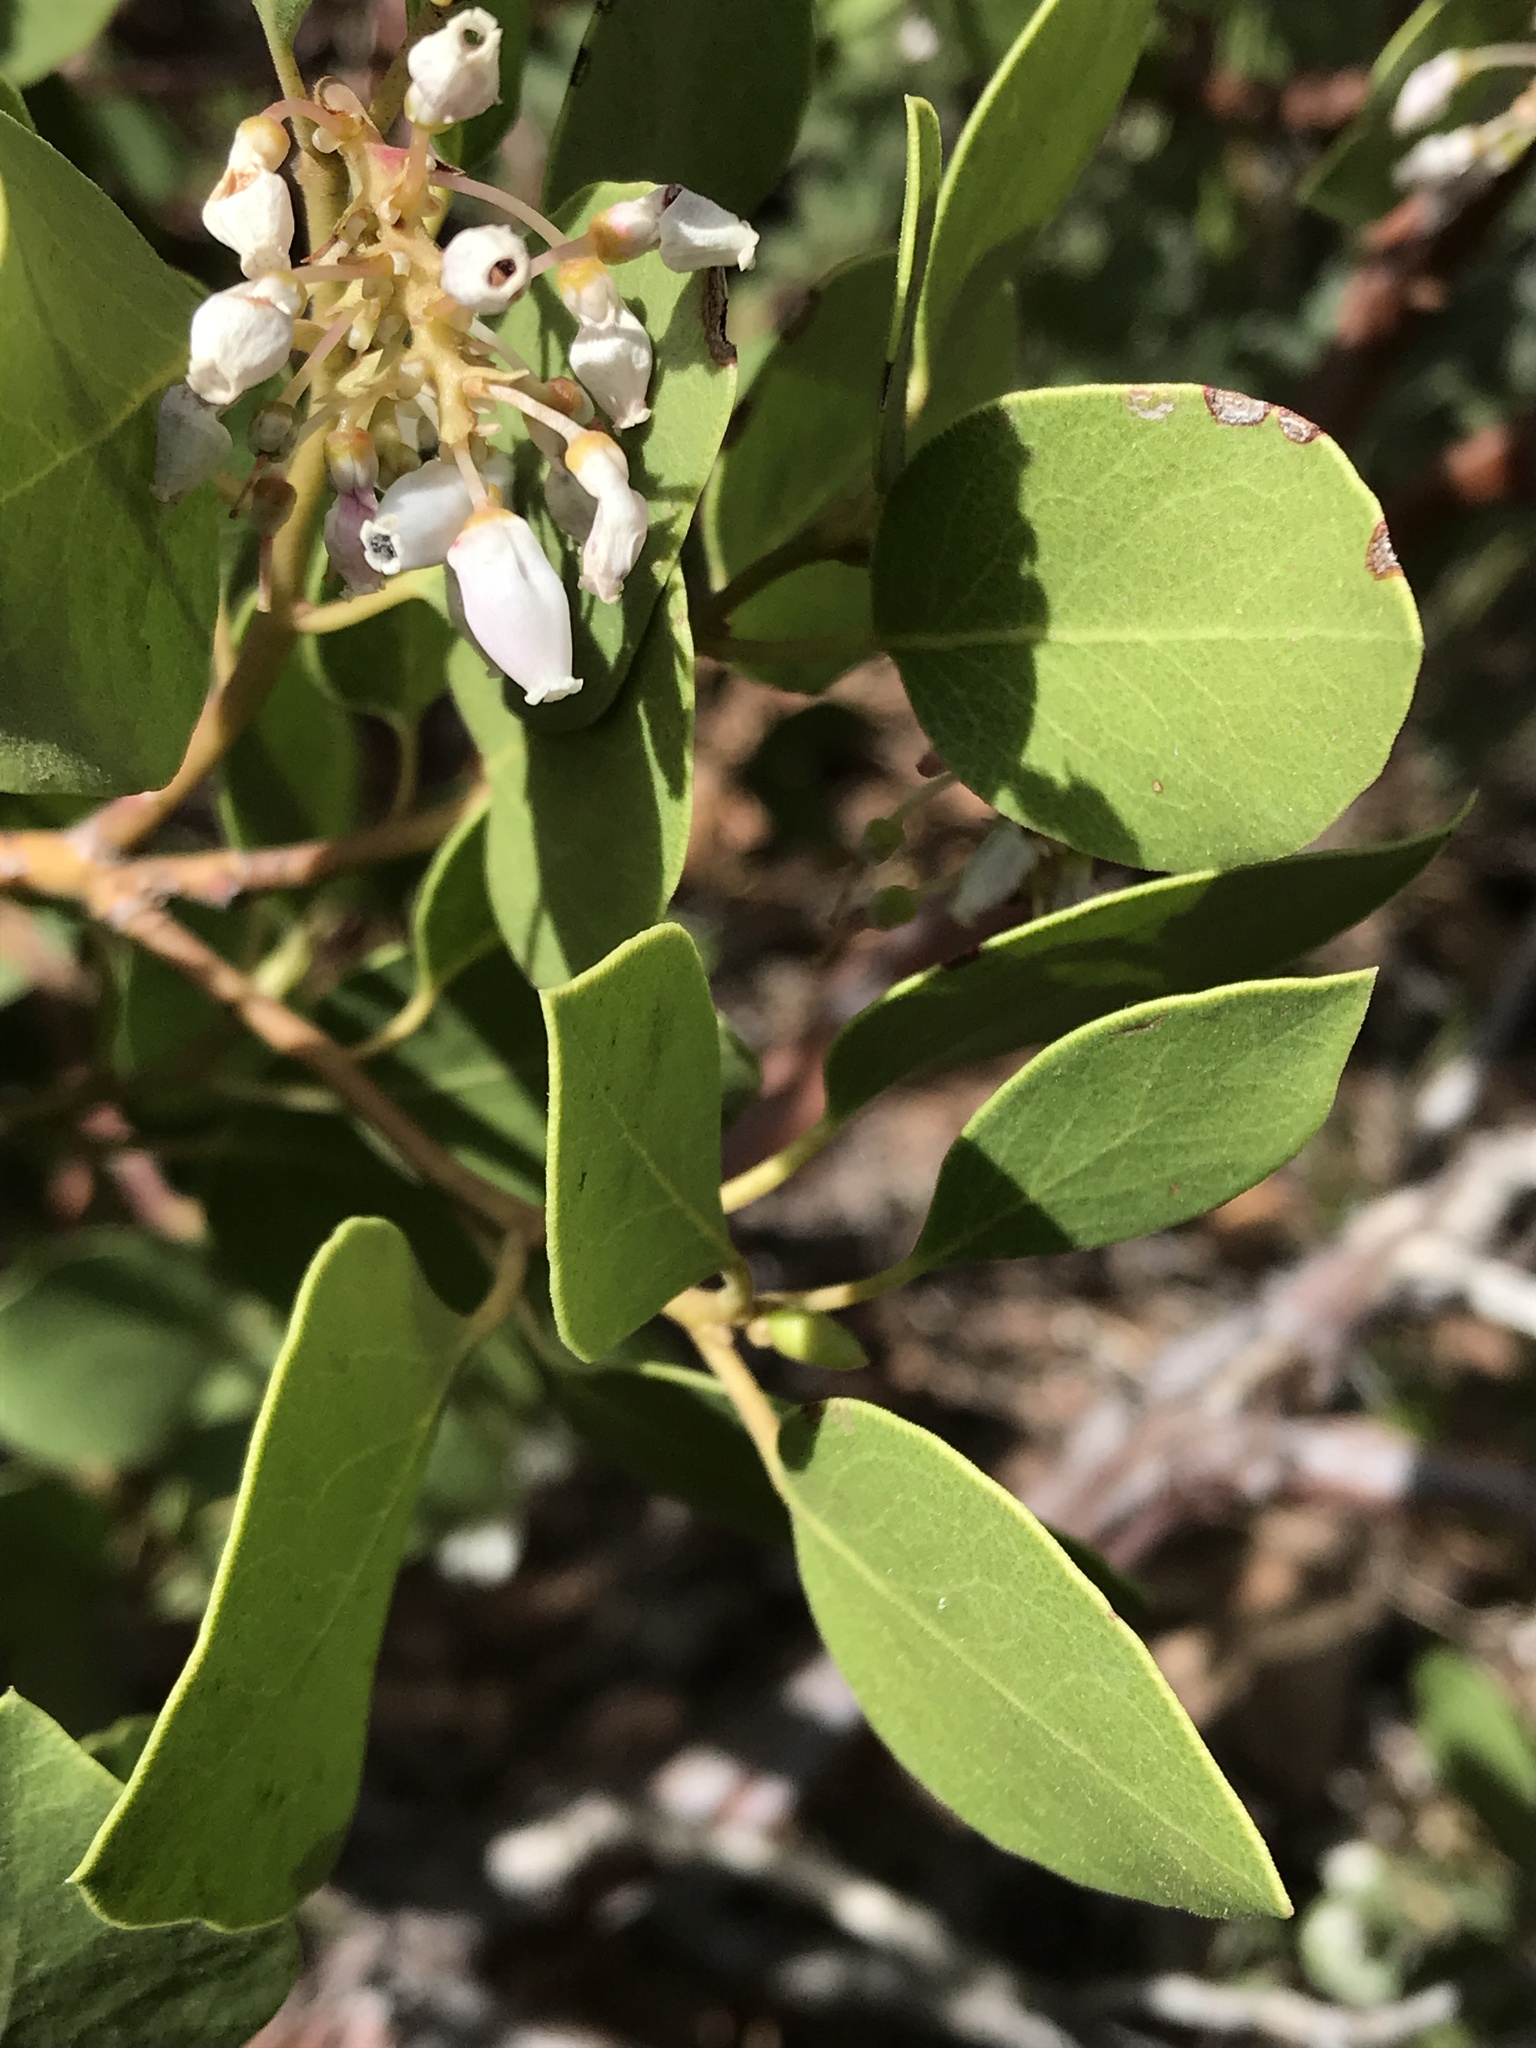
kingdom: Plantae
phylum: Tracheophyta
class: Magnoliopsida
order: Ericales
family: Ericaceae
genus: Arctostaphylos
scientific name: Arctostaphylos patula
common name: Green-leaf manzanita
